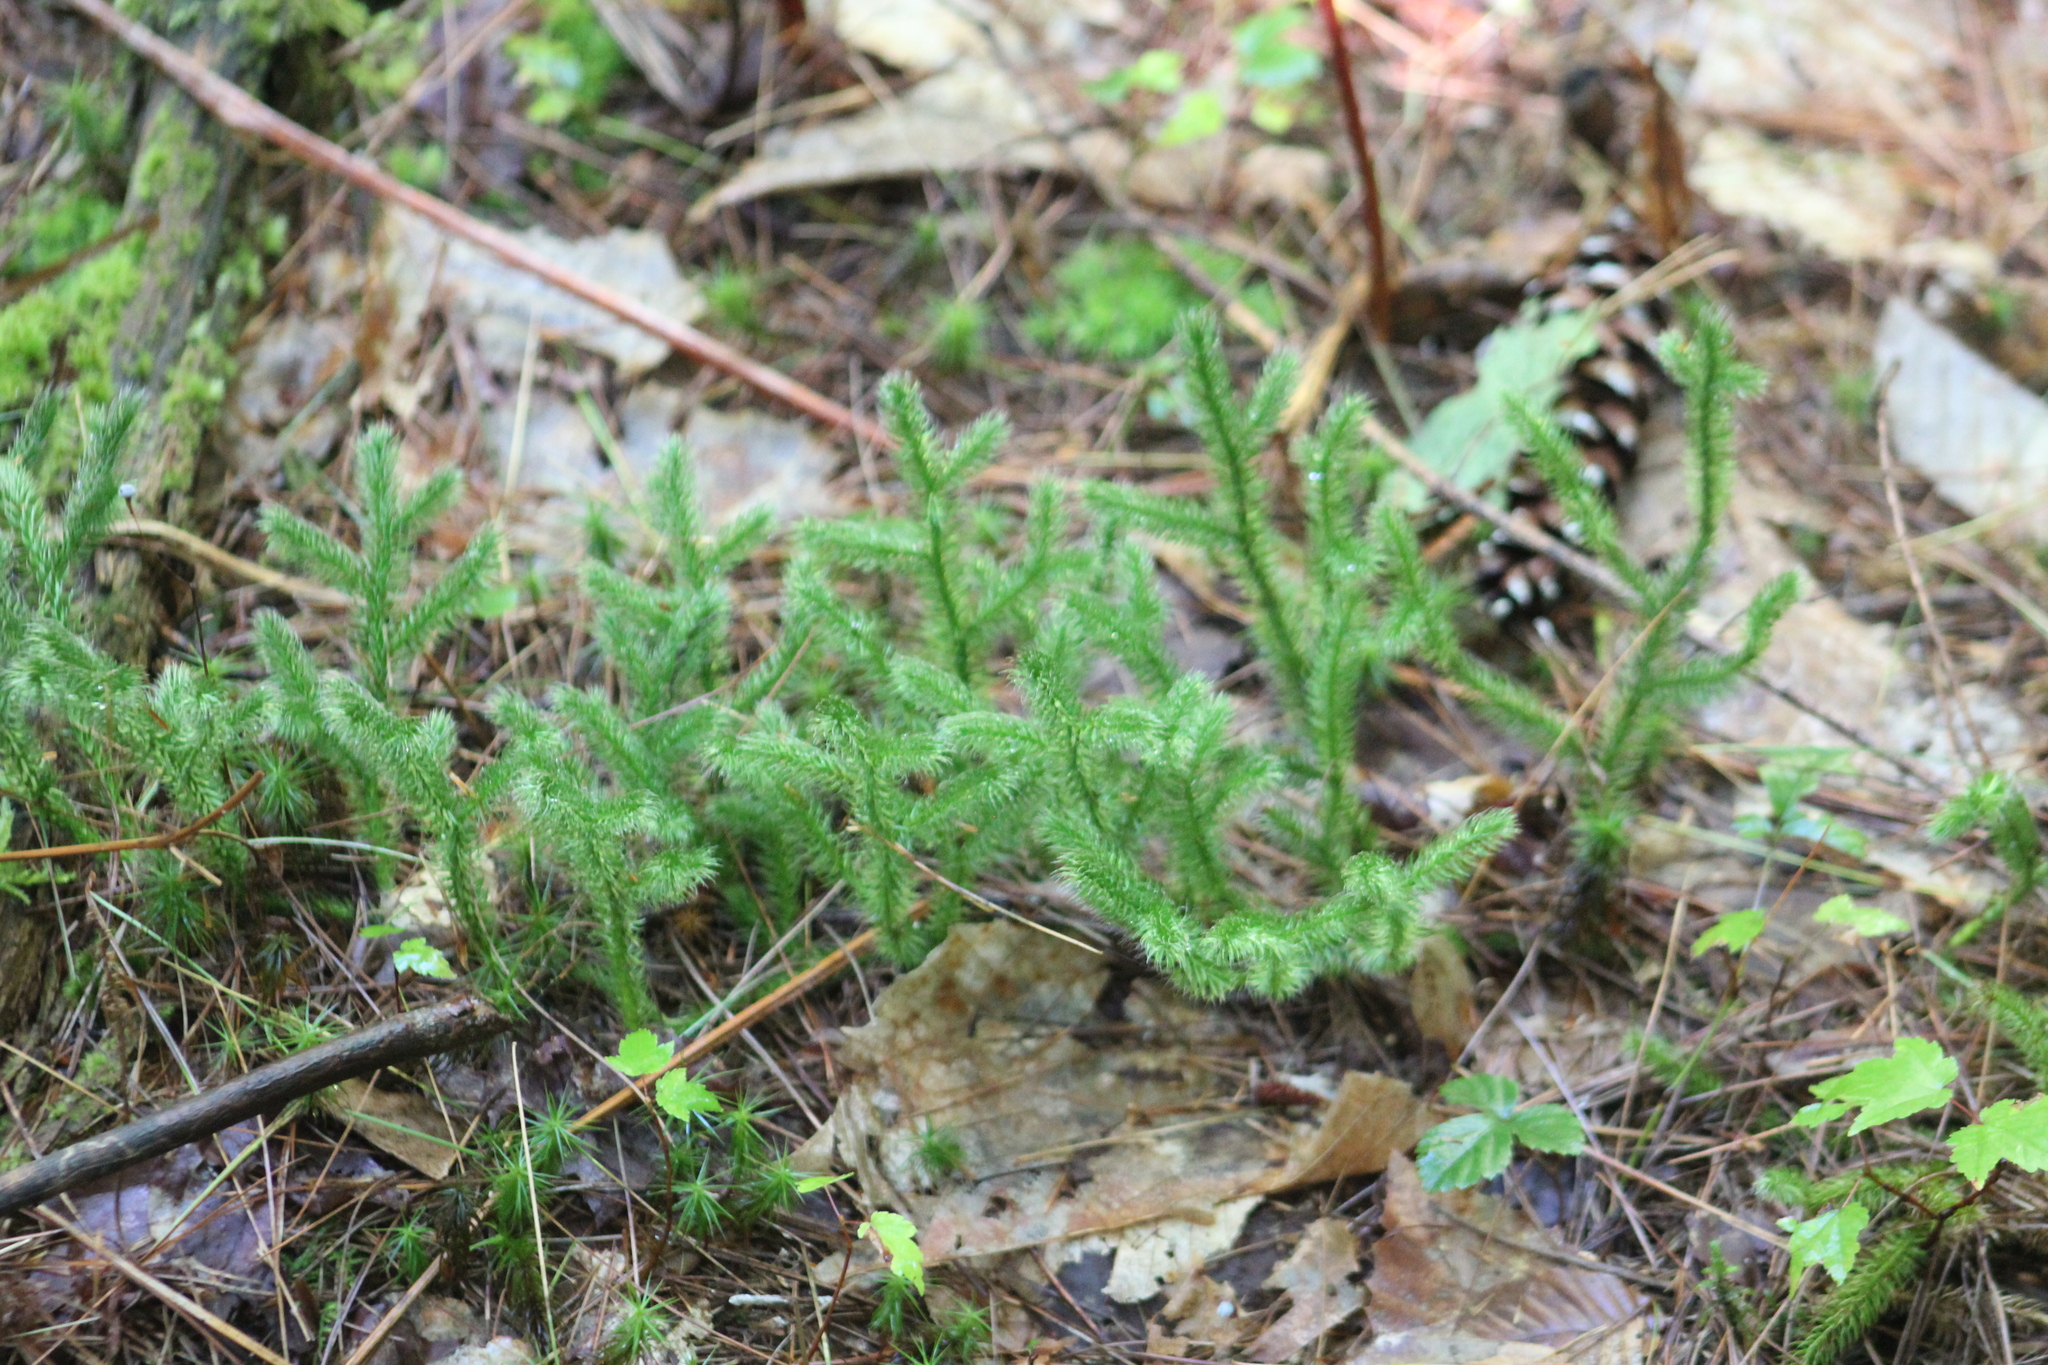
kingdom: Plantae
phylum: Tracheophyta
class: Lycopodiopsida
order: Lycopodiales
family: Lycopodiaceae
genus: Lycopodium
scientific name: Lycopodium clavatum
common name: Stag's-horn clubmoss
